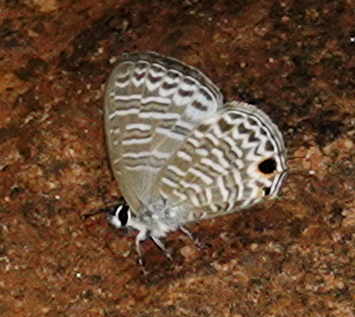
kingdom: Animalia
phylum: Arthropoda
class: Insecta
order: Lepidoptera
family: Lycaenidae
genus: Nacaduba
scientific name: Nacaduba sinhala
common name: Pale ceylon line blue
